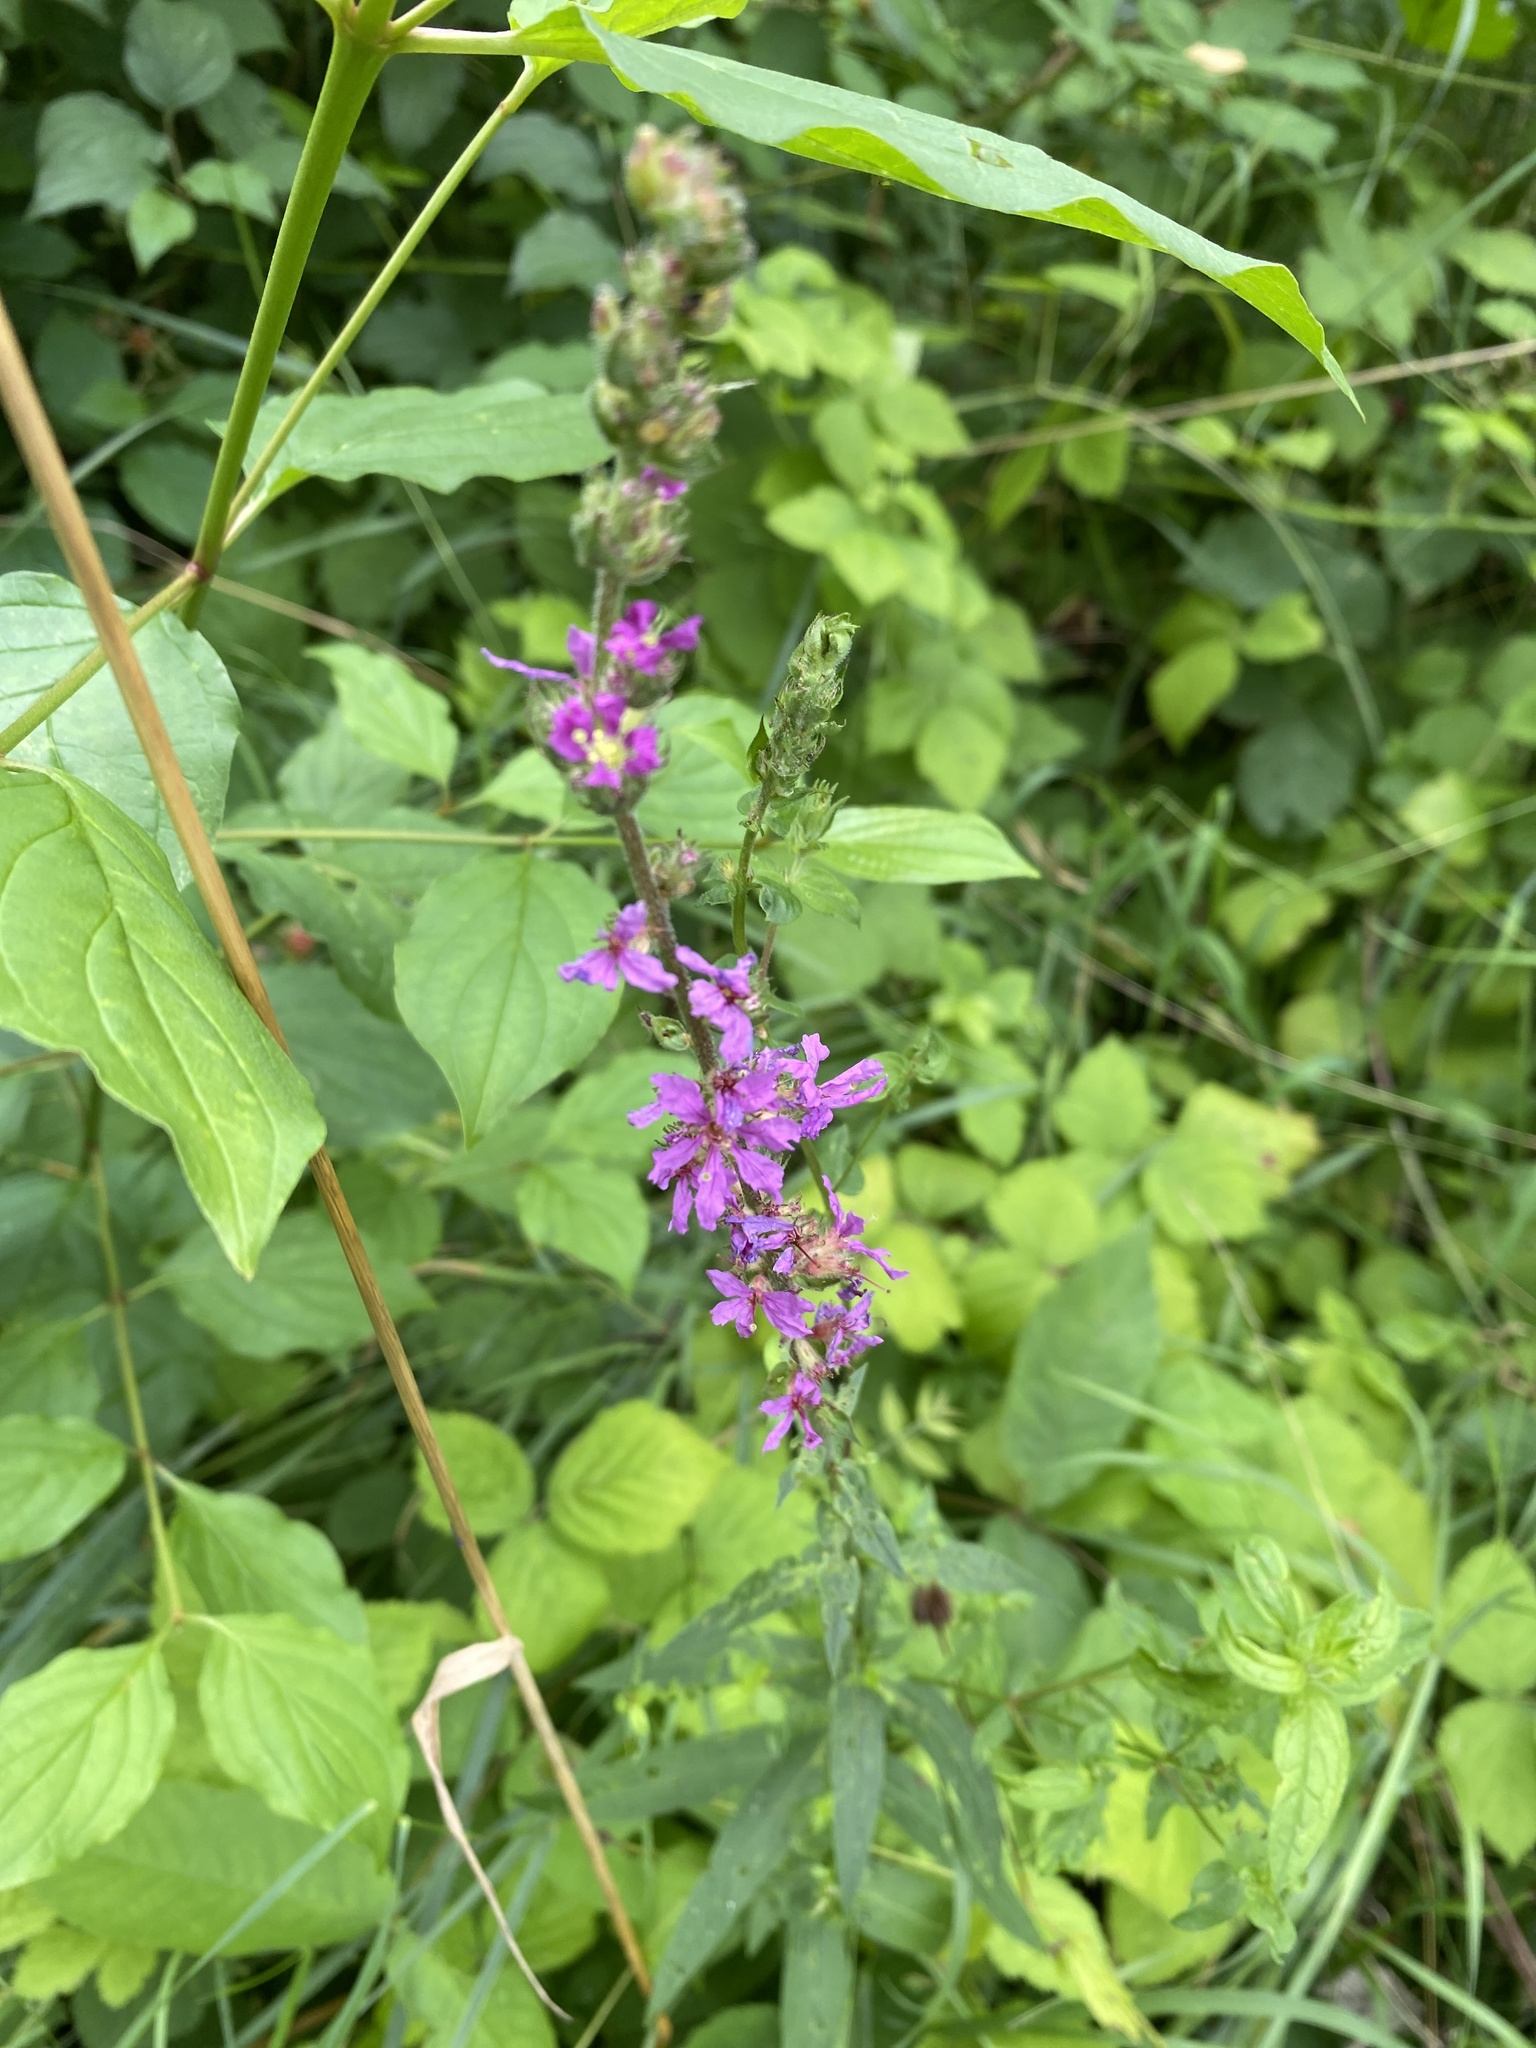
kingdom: Plantae
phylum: Tracheophyta
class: Magnoliopsida
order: Myrtales
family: Lythraceae
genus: Lythrum
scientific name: Lythrum salicaria
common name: Purple loosestrife
